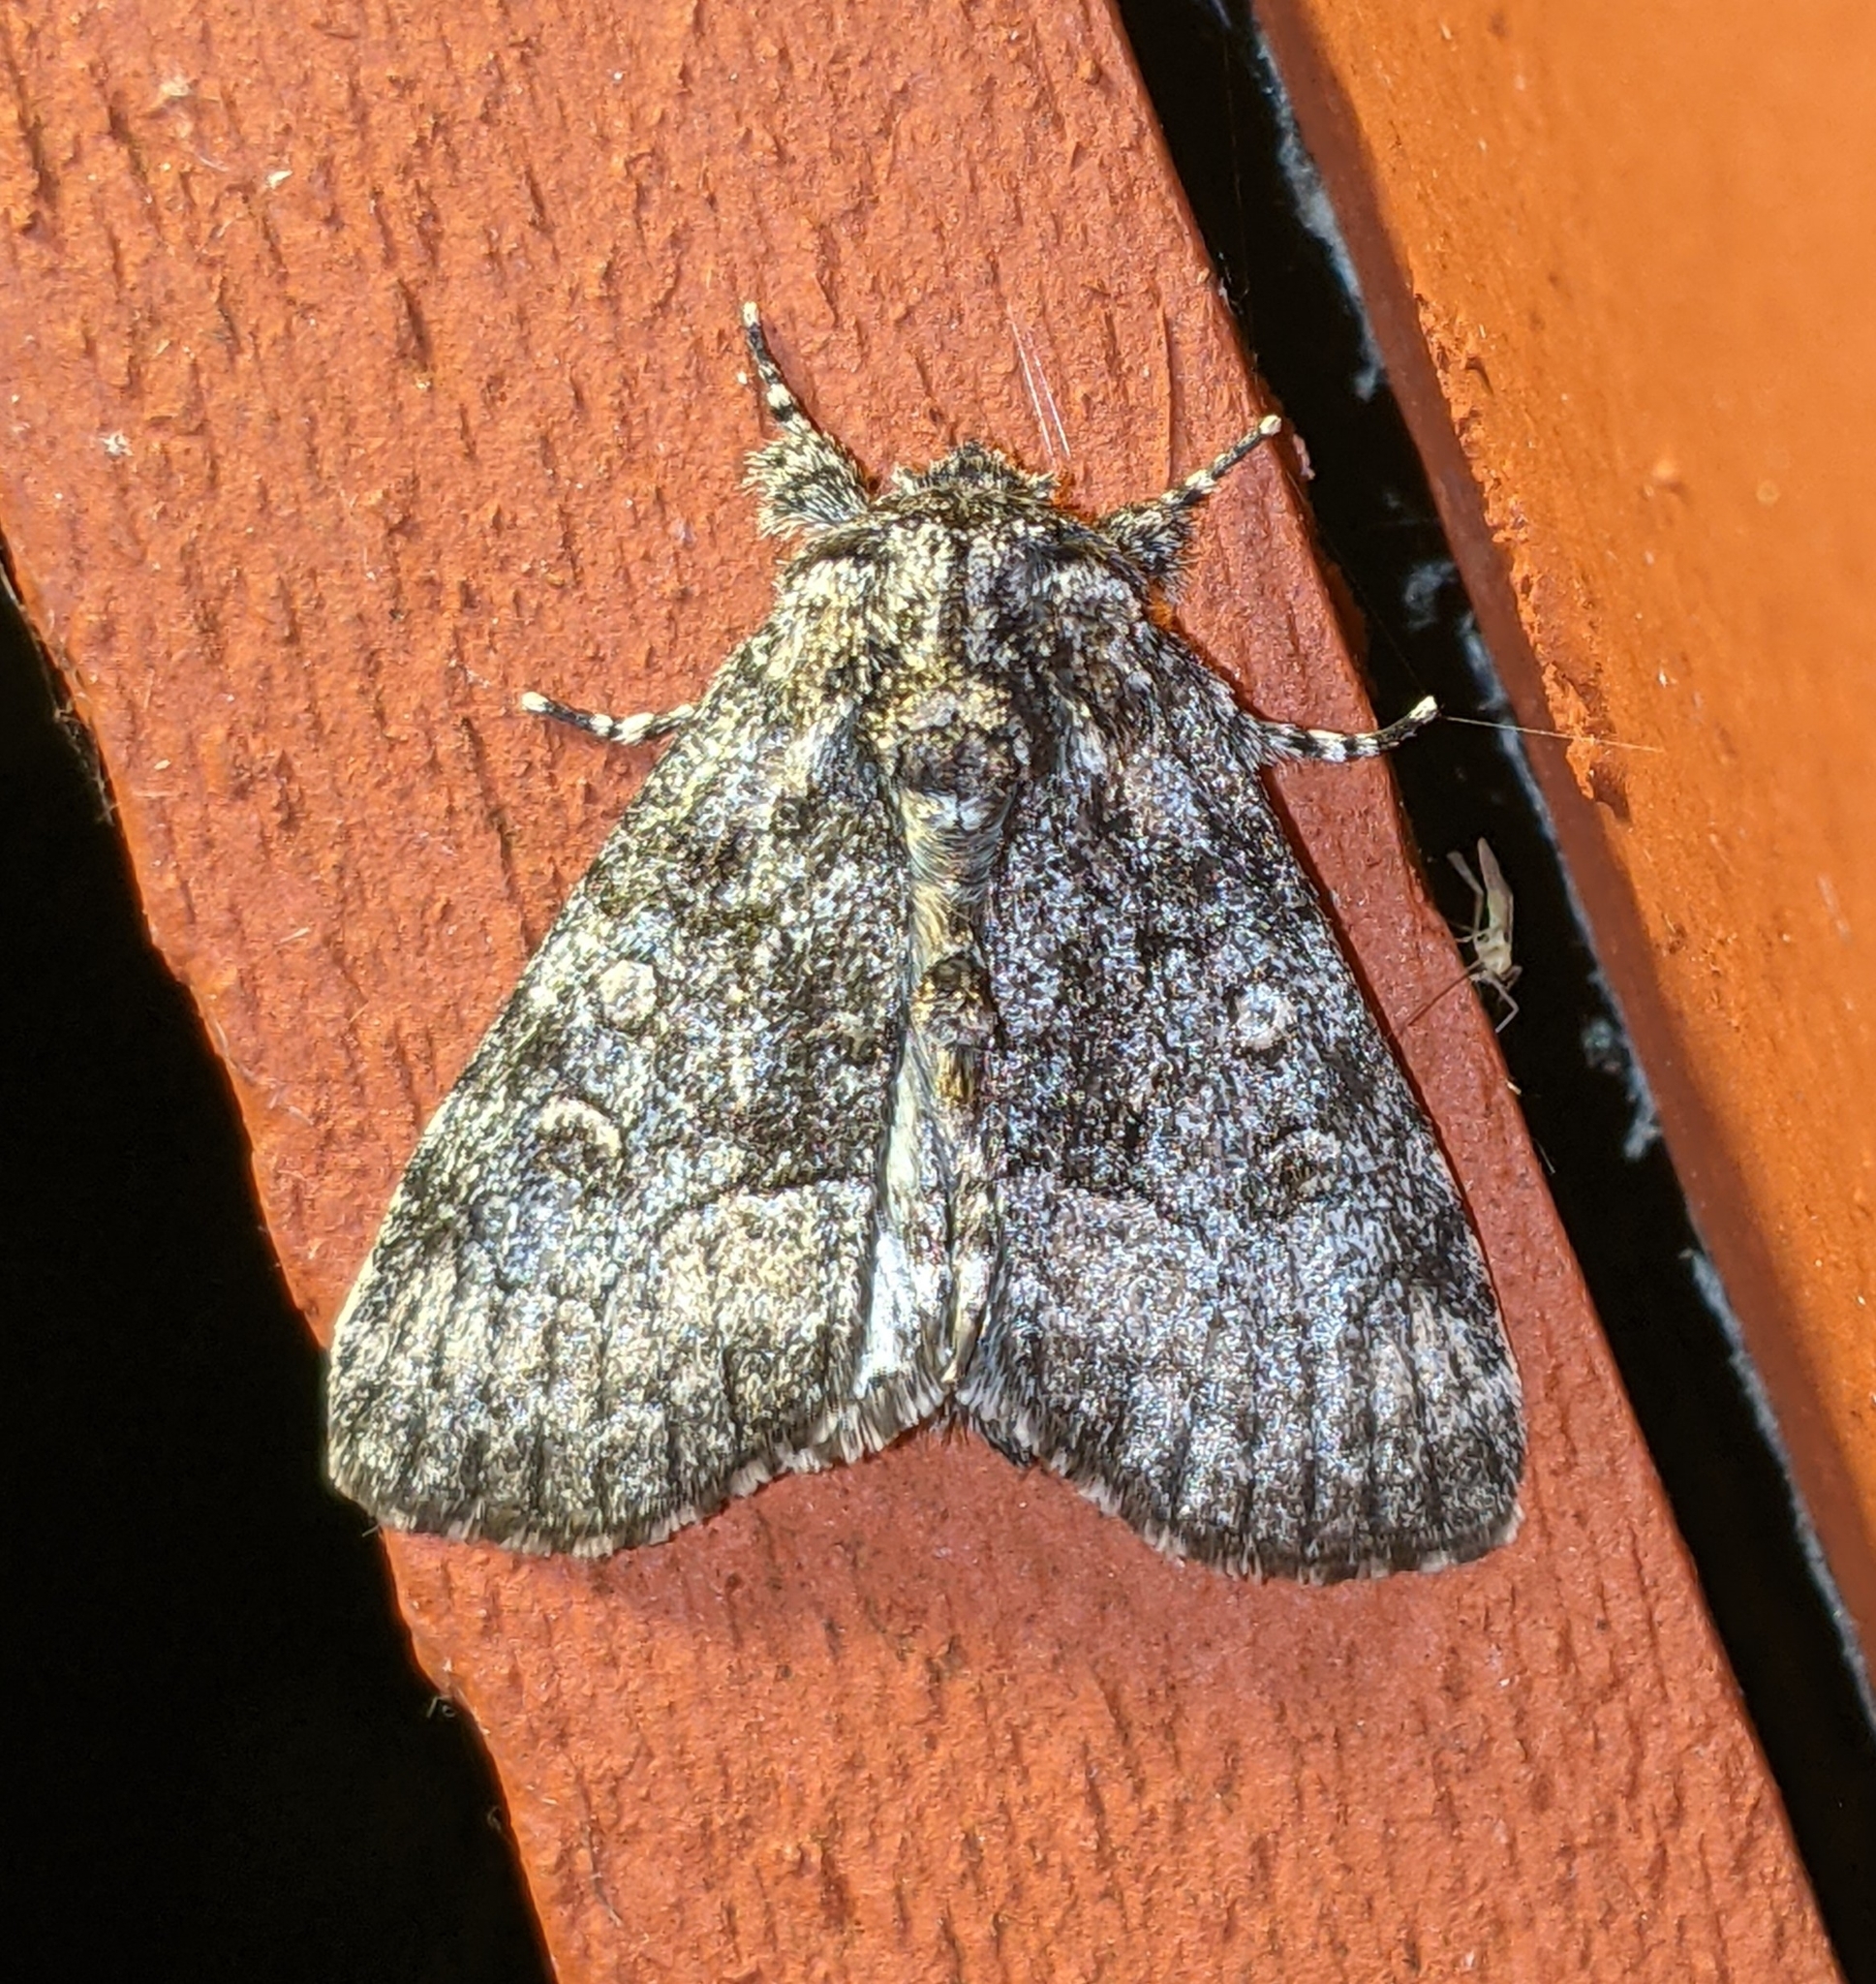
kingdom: Animalia
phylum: Arthropoda
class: Insecta
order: Lepidoptera
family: Noctuidae
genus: Raphia
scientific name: Raphia frater
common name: Brother
